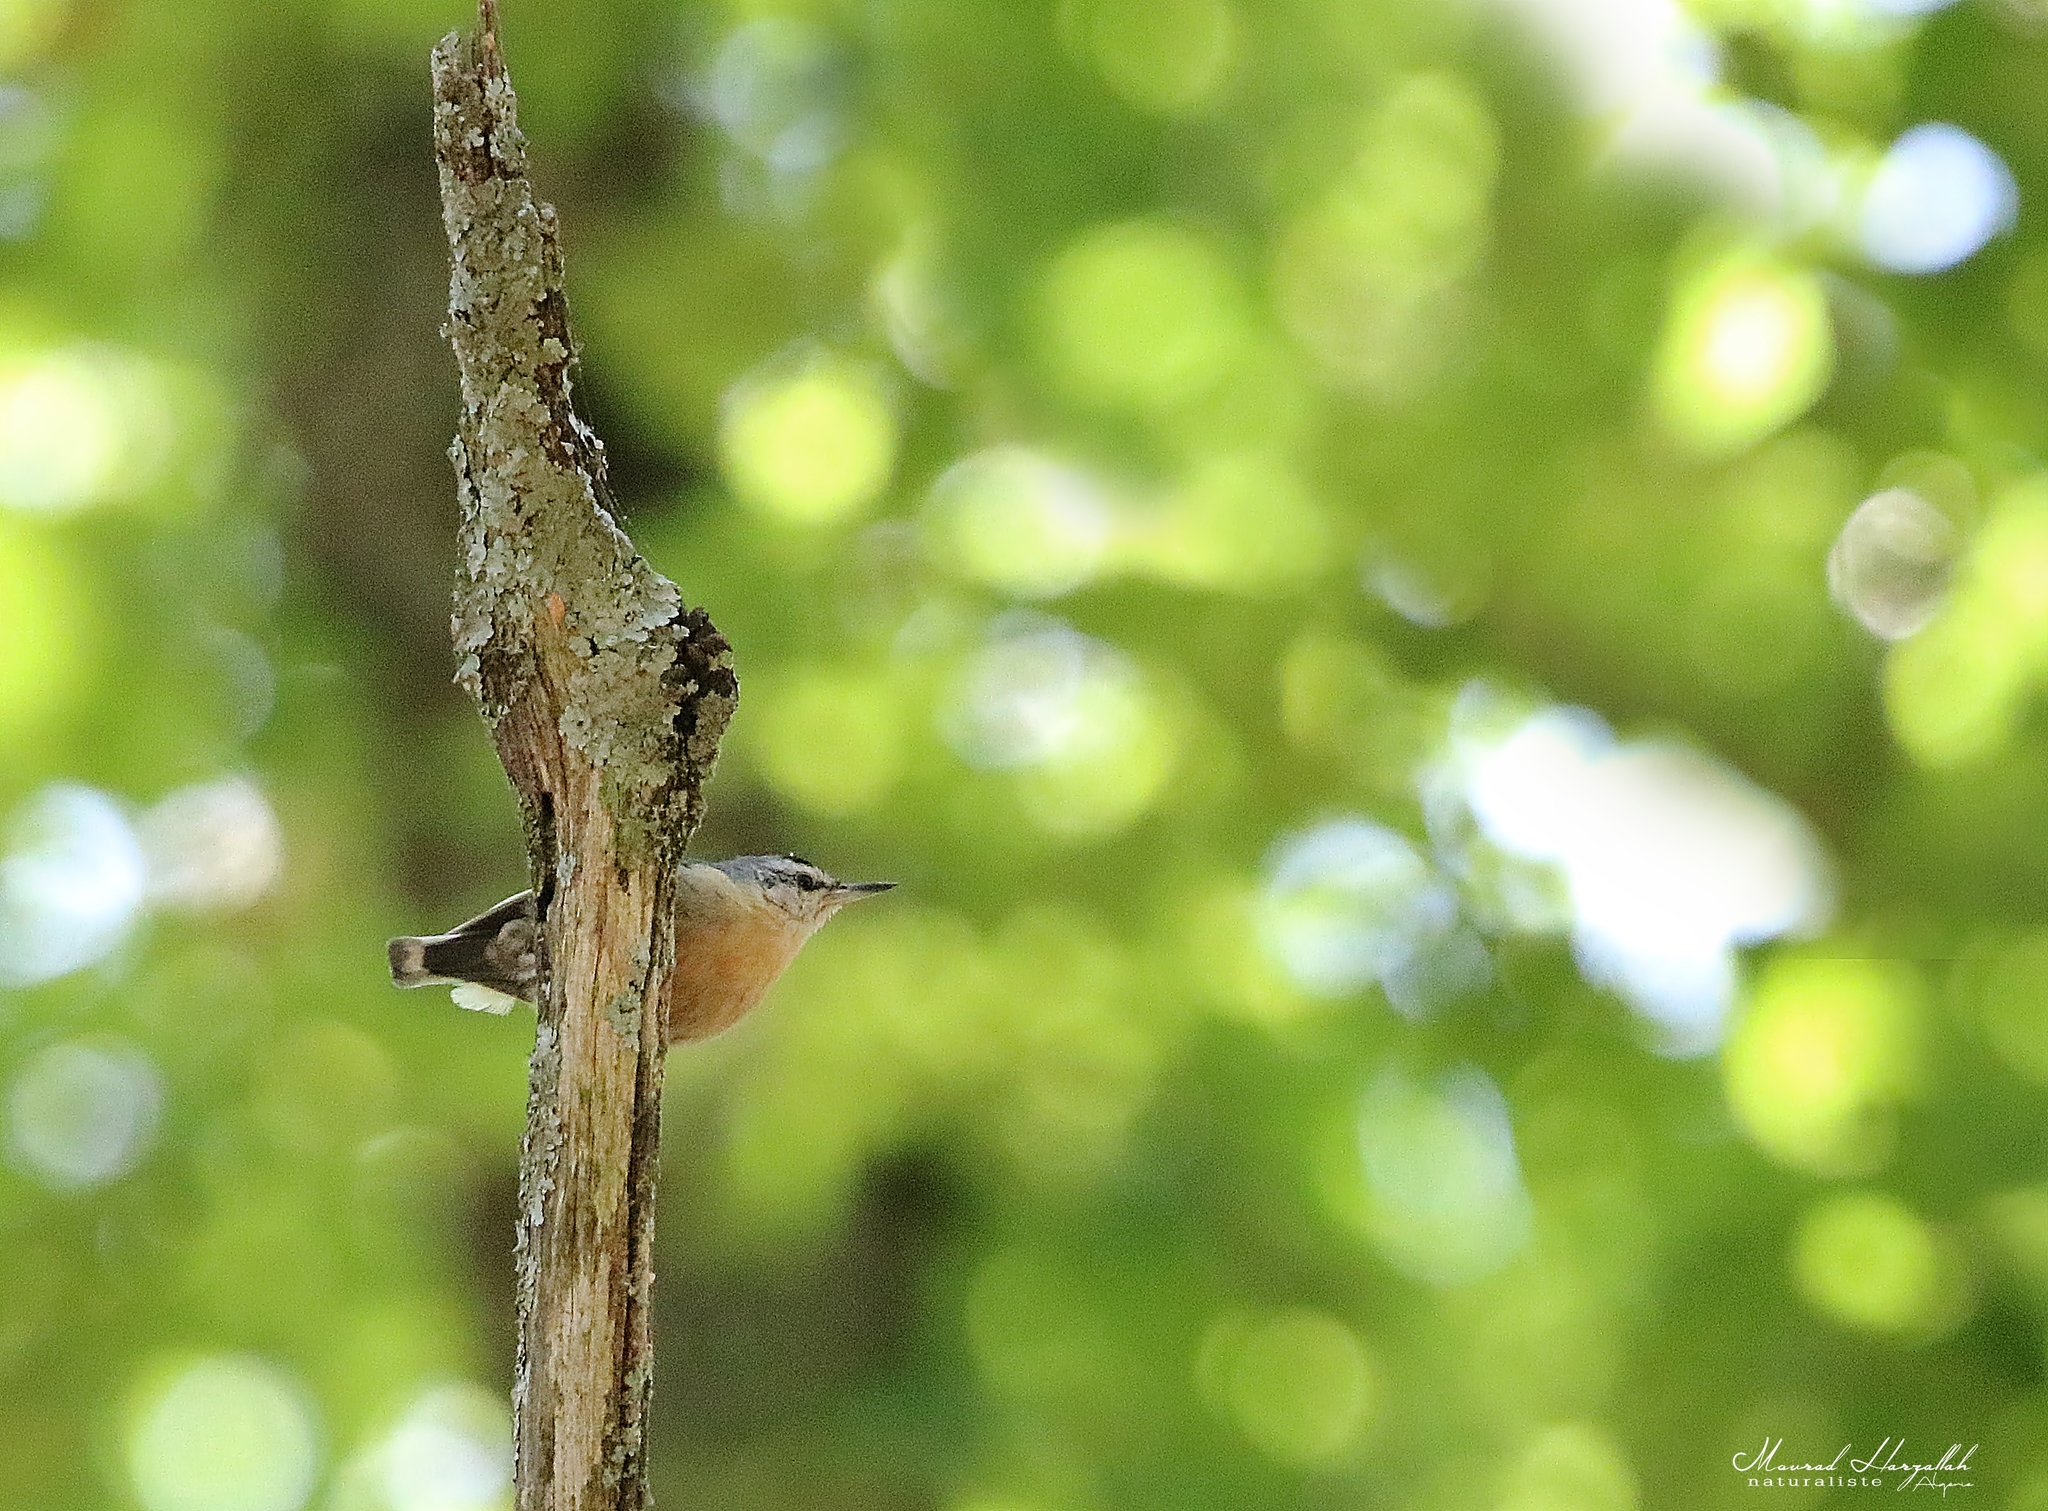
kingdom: Animalia
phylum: Chordata
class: Aves
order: Passeriformes
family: Sittidae
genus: Sitta
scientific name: Sitta ledanti
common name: Algerian nuthatch
